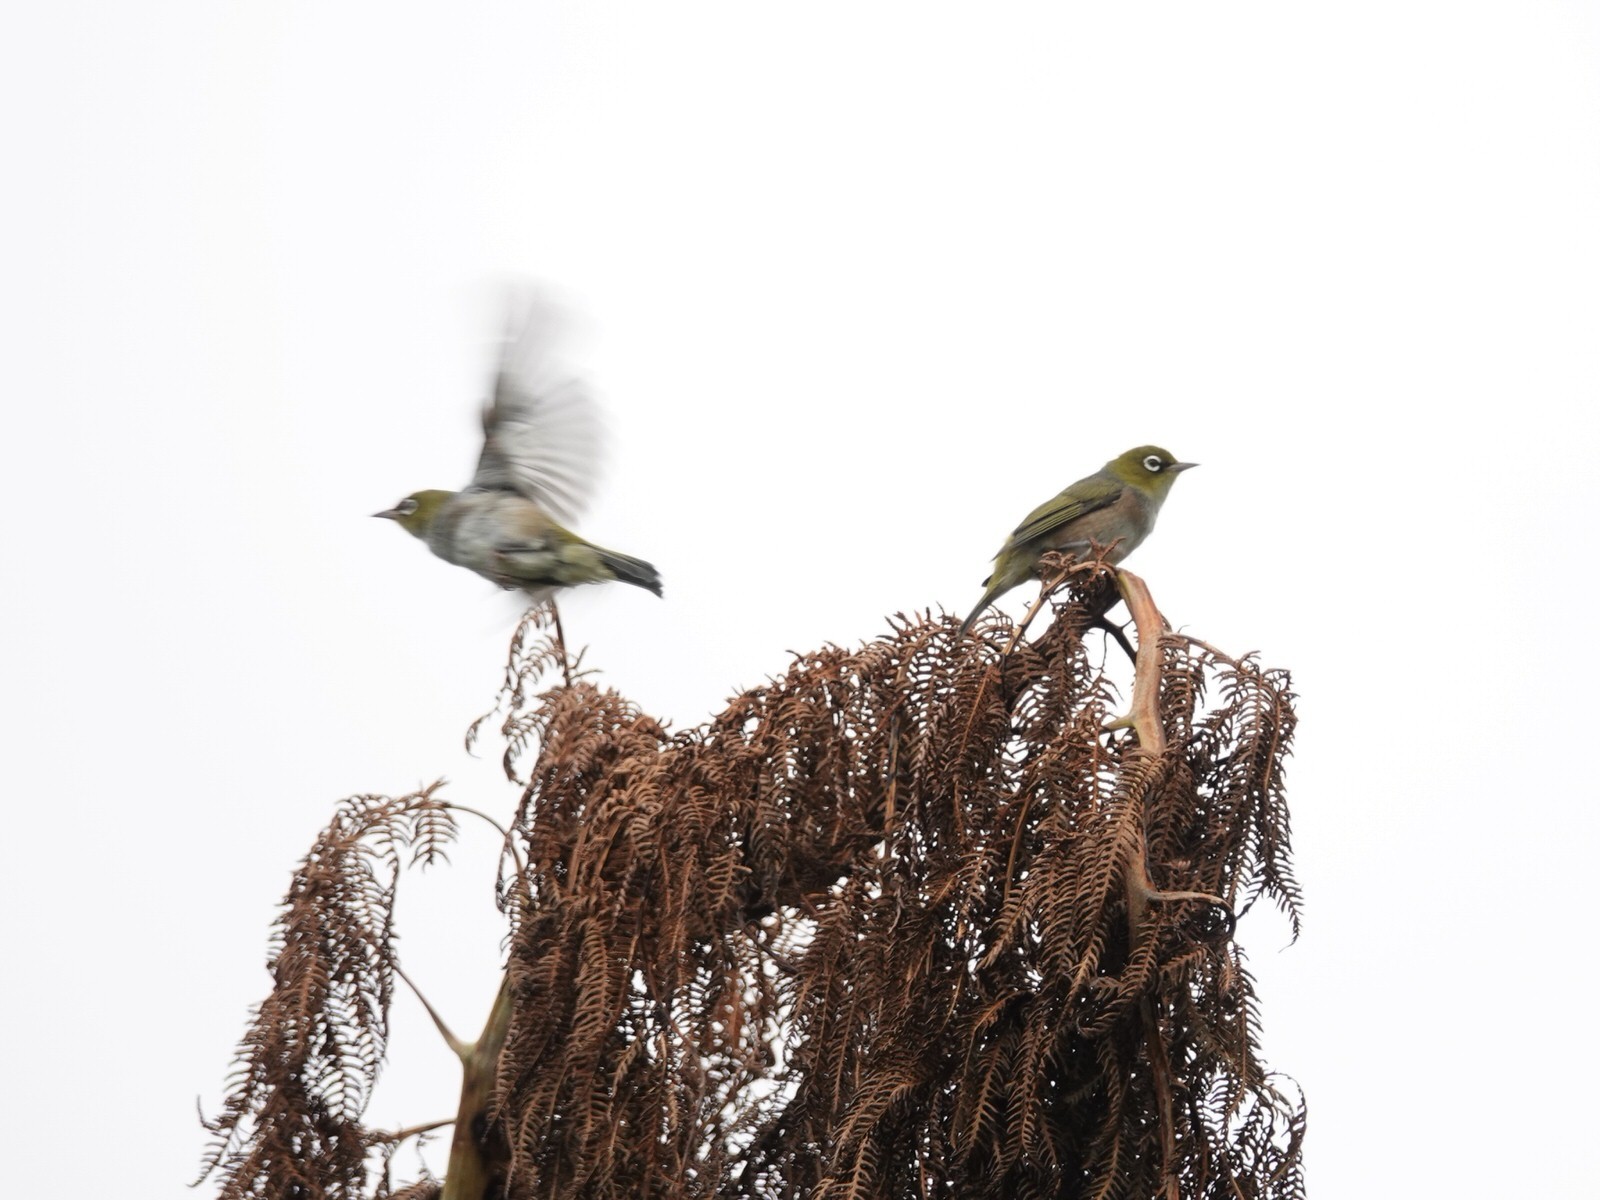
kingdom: Animalia
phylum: Chordata
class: Aves
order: Passeriformes
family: Zosteropidae
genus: Zosterops
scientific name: Zosterops lateralis
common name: Silvereye
